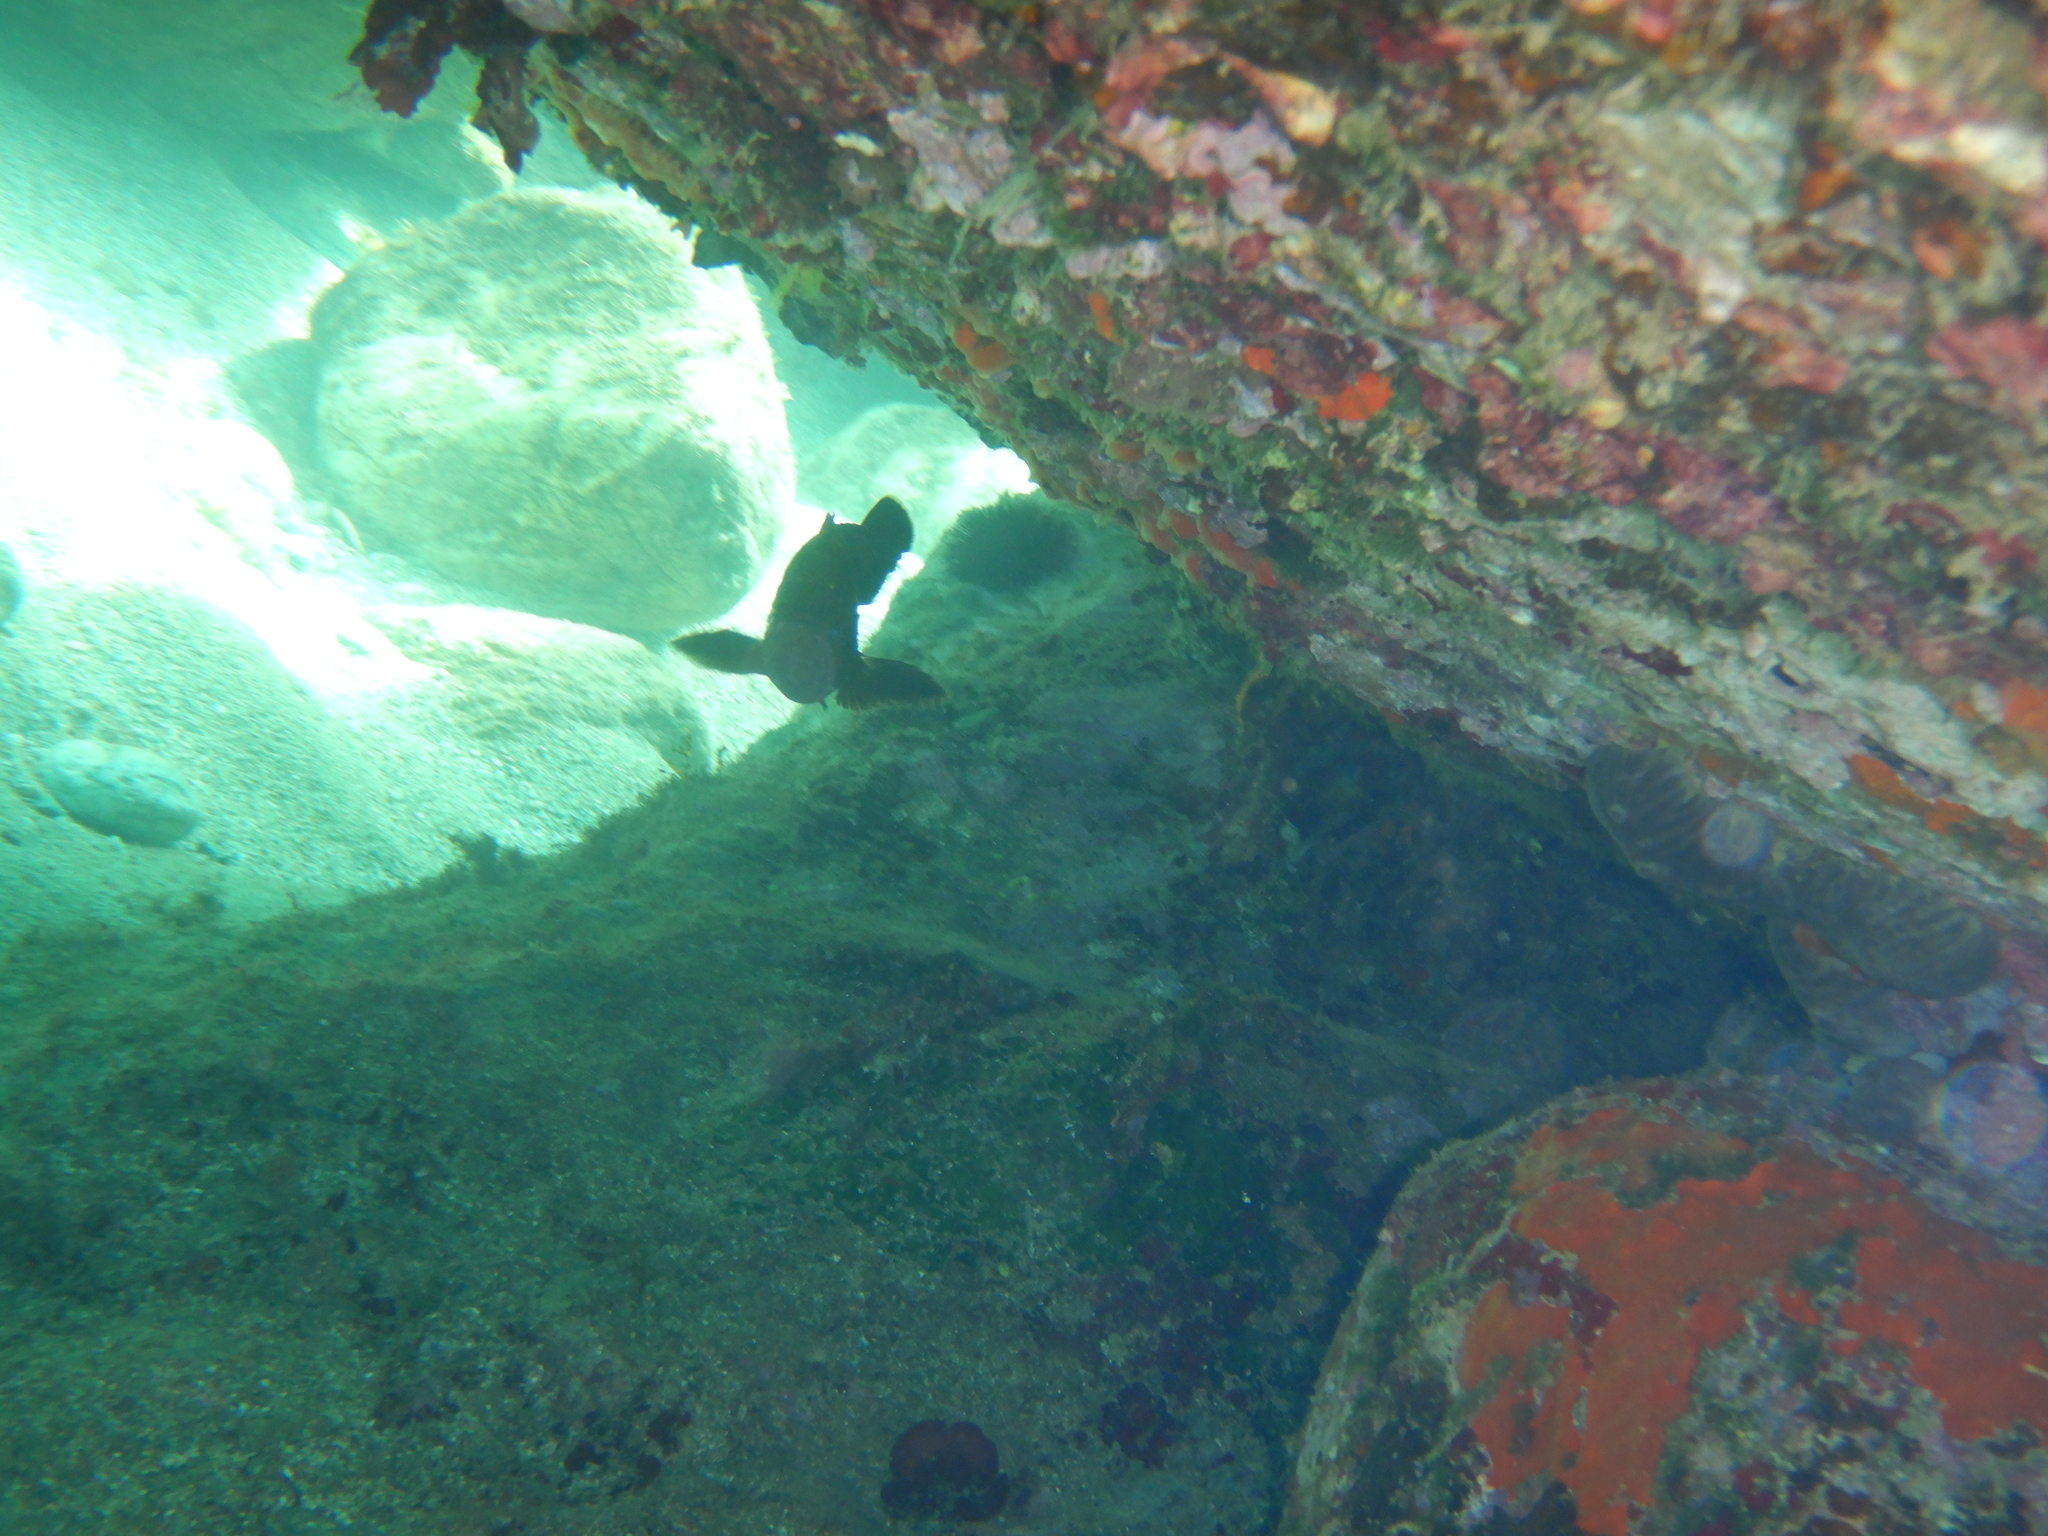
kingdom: Animalia
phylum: Chordata
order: Perciformes
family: Serranidae
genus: Epinephelus
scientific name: Epinephelus marginatus
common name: Dusky grouper
